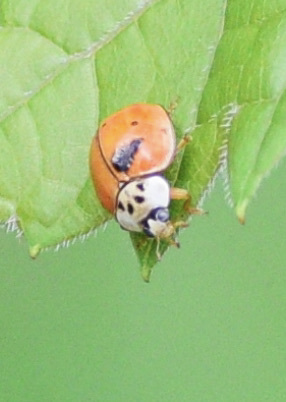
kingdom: Animalia
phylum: Arthropoda
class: Insecta
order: Coleoptera
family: Coccinellidae
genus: Harmonia
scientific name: Harmonia axyridis
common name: Harlequin ladybird
